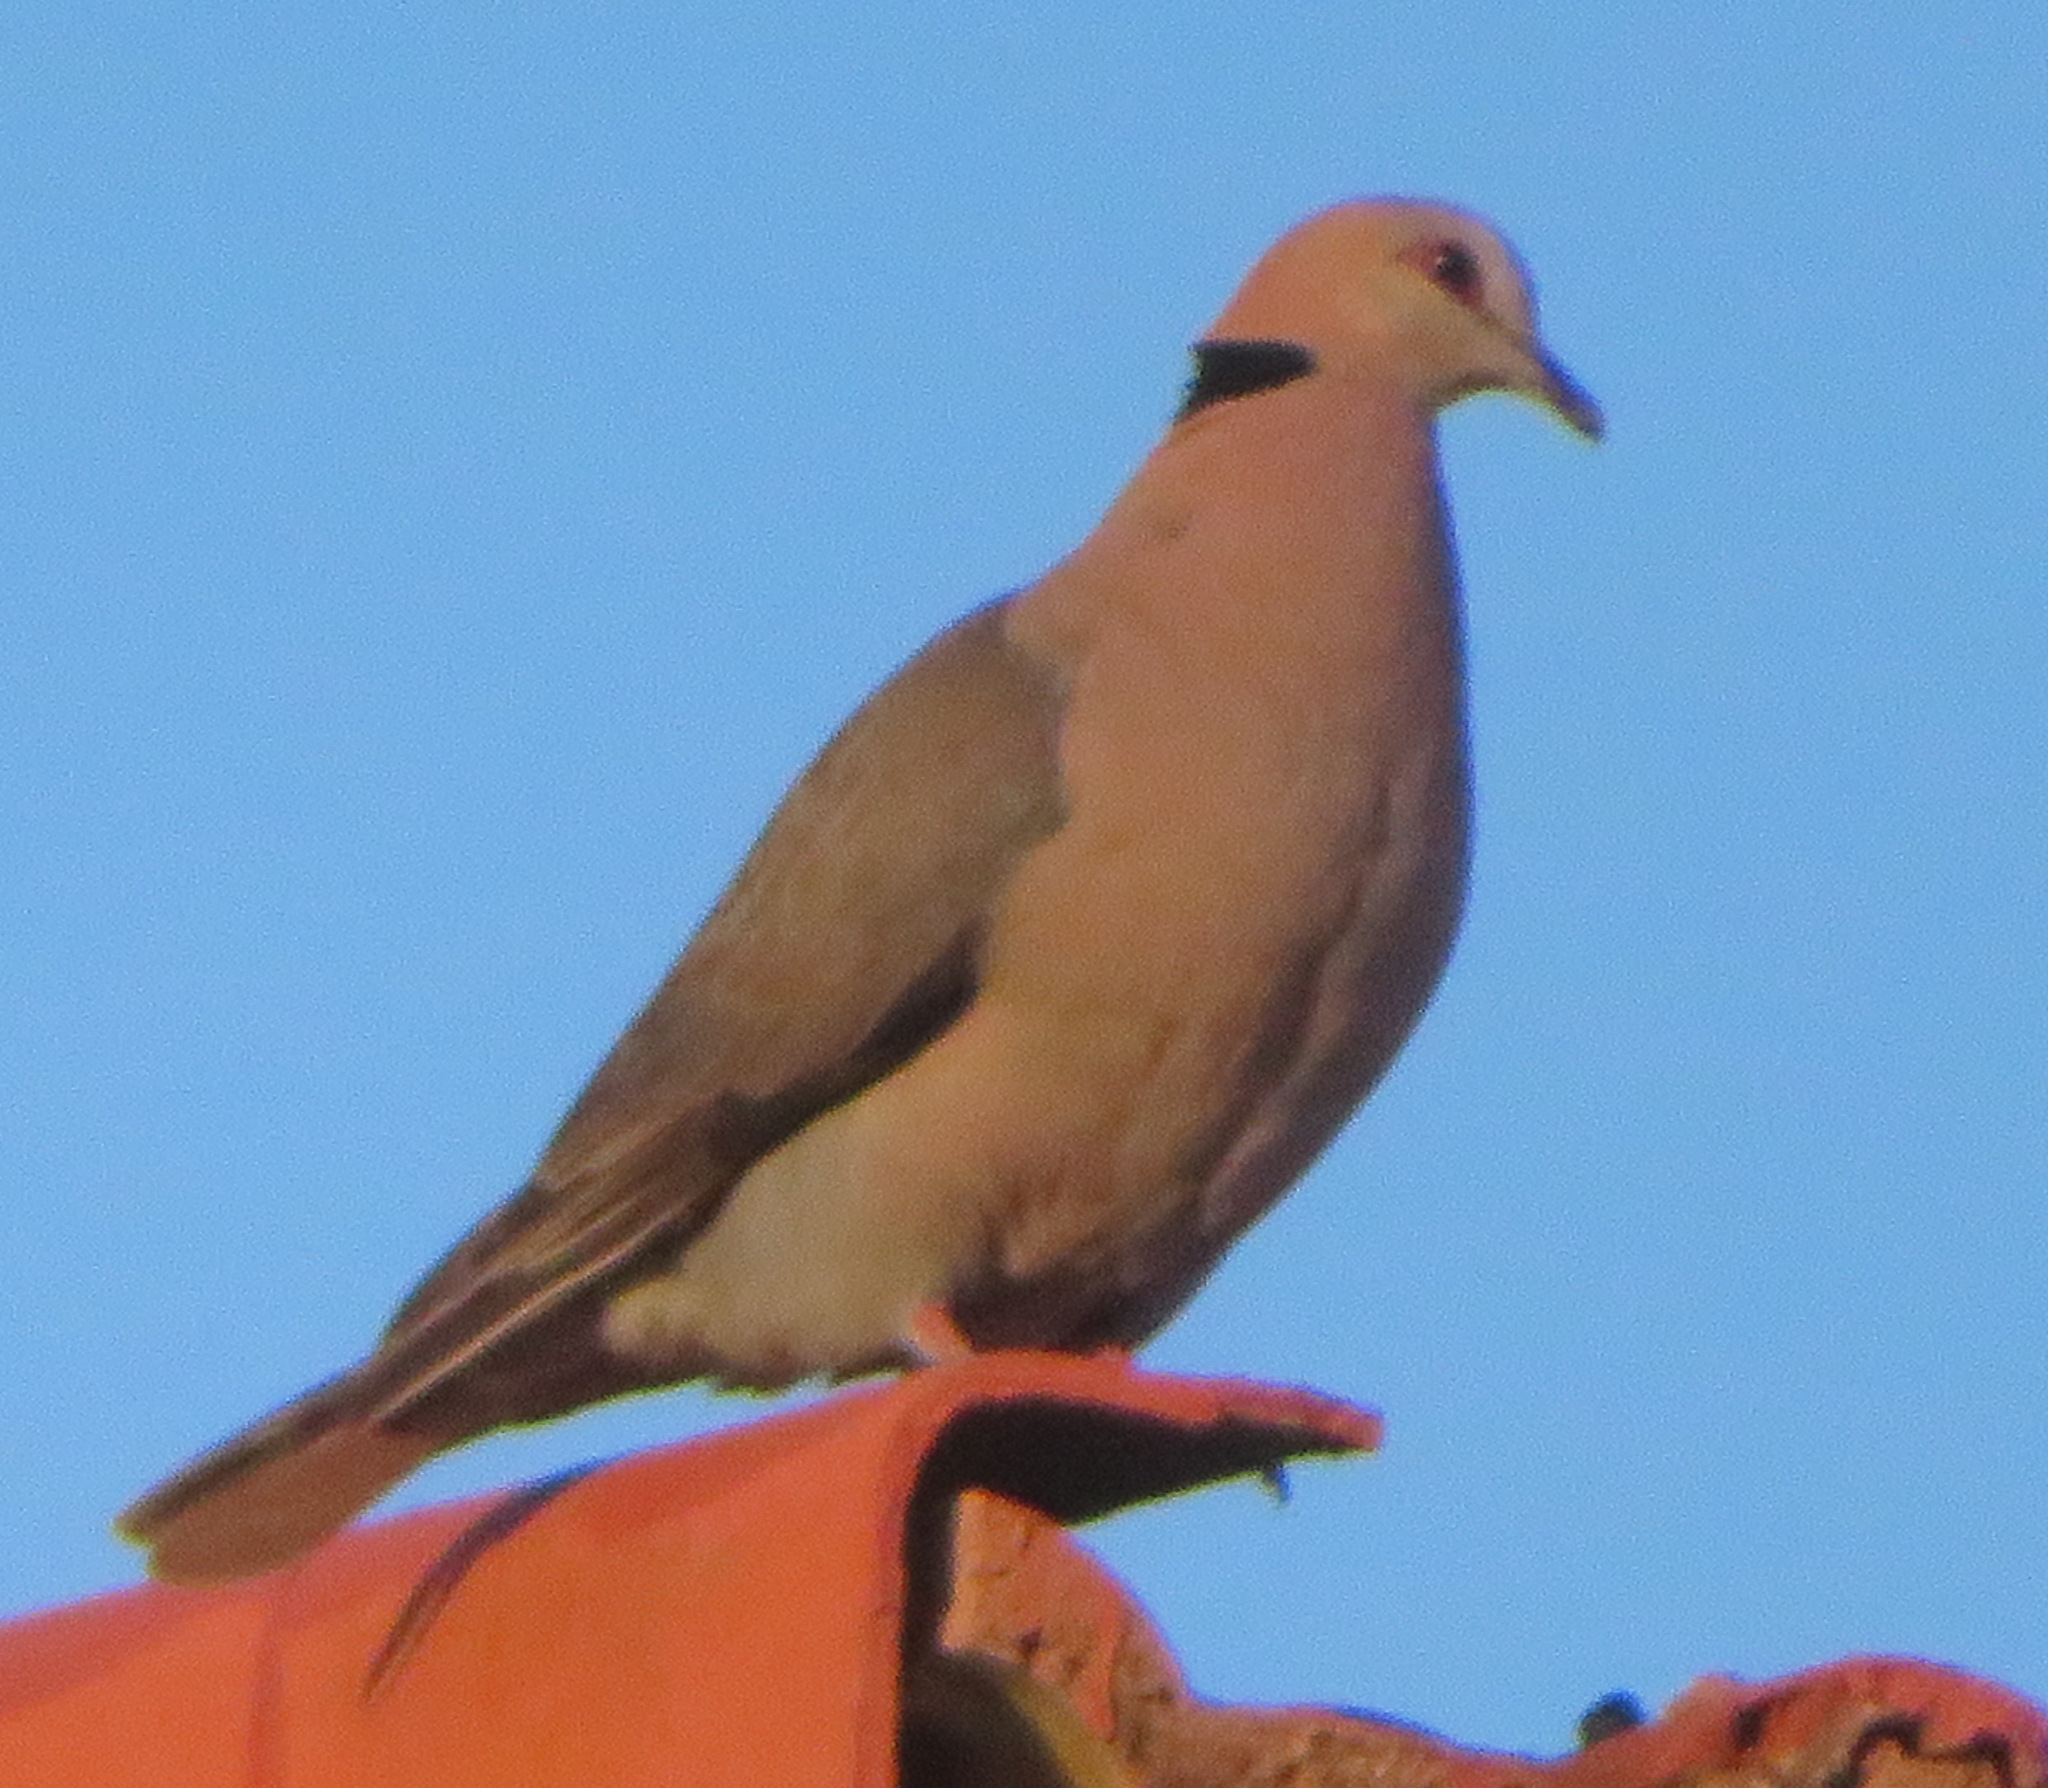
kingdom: Animalia
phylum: Chordata
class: Aves
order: Columbiformes
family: Columbidae
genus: Streptopelia
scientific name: Streptopelia semitorquata
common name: Red-eyed dove
